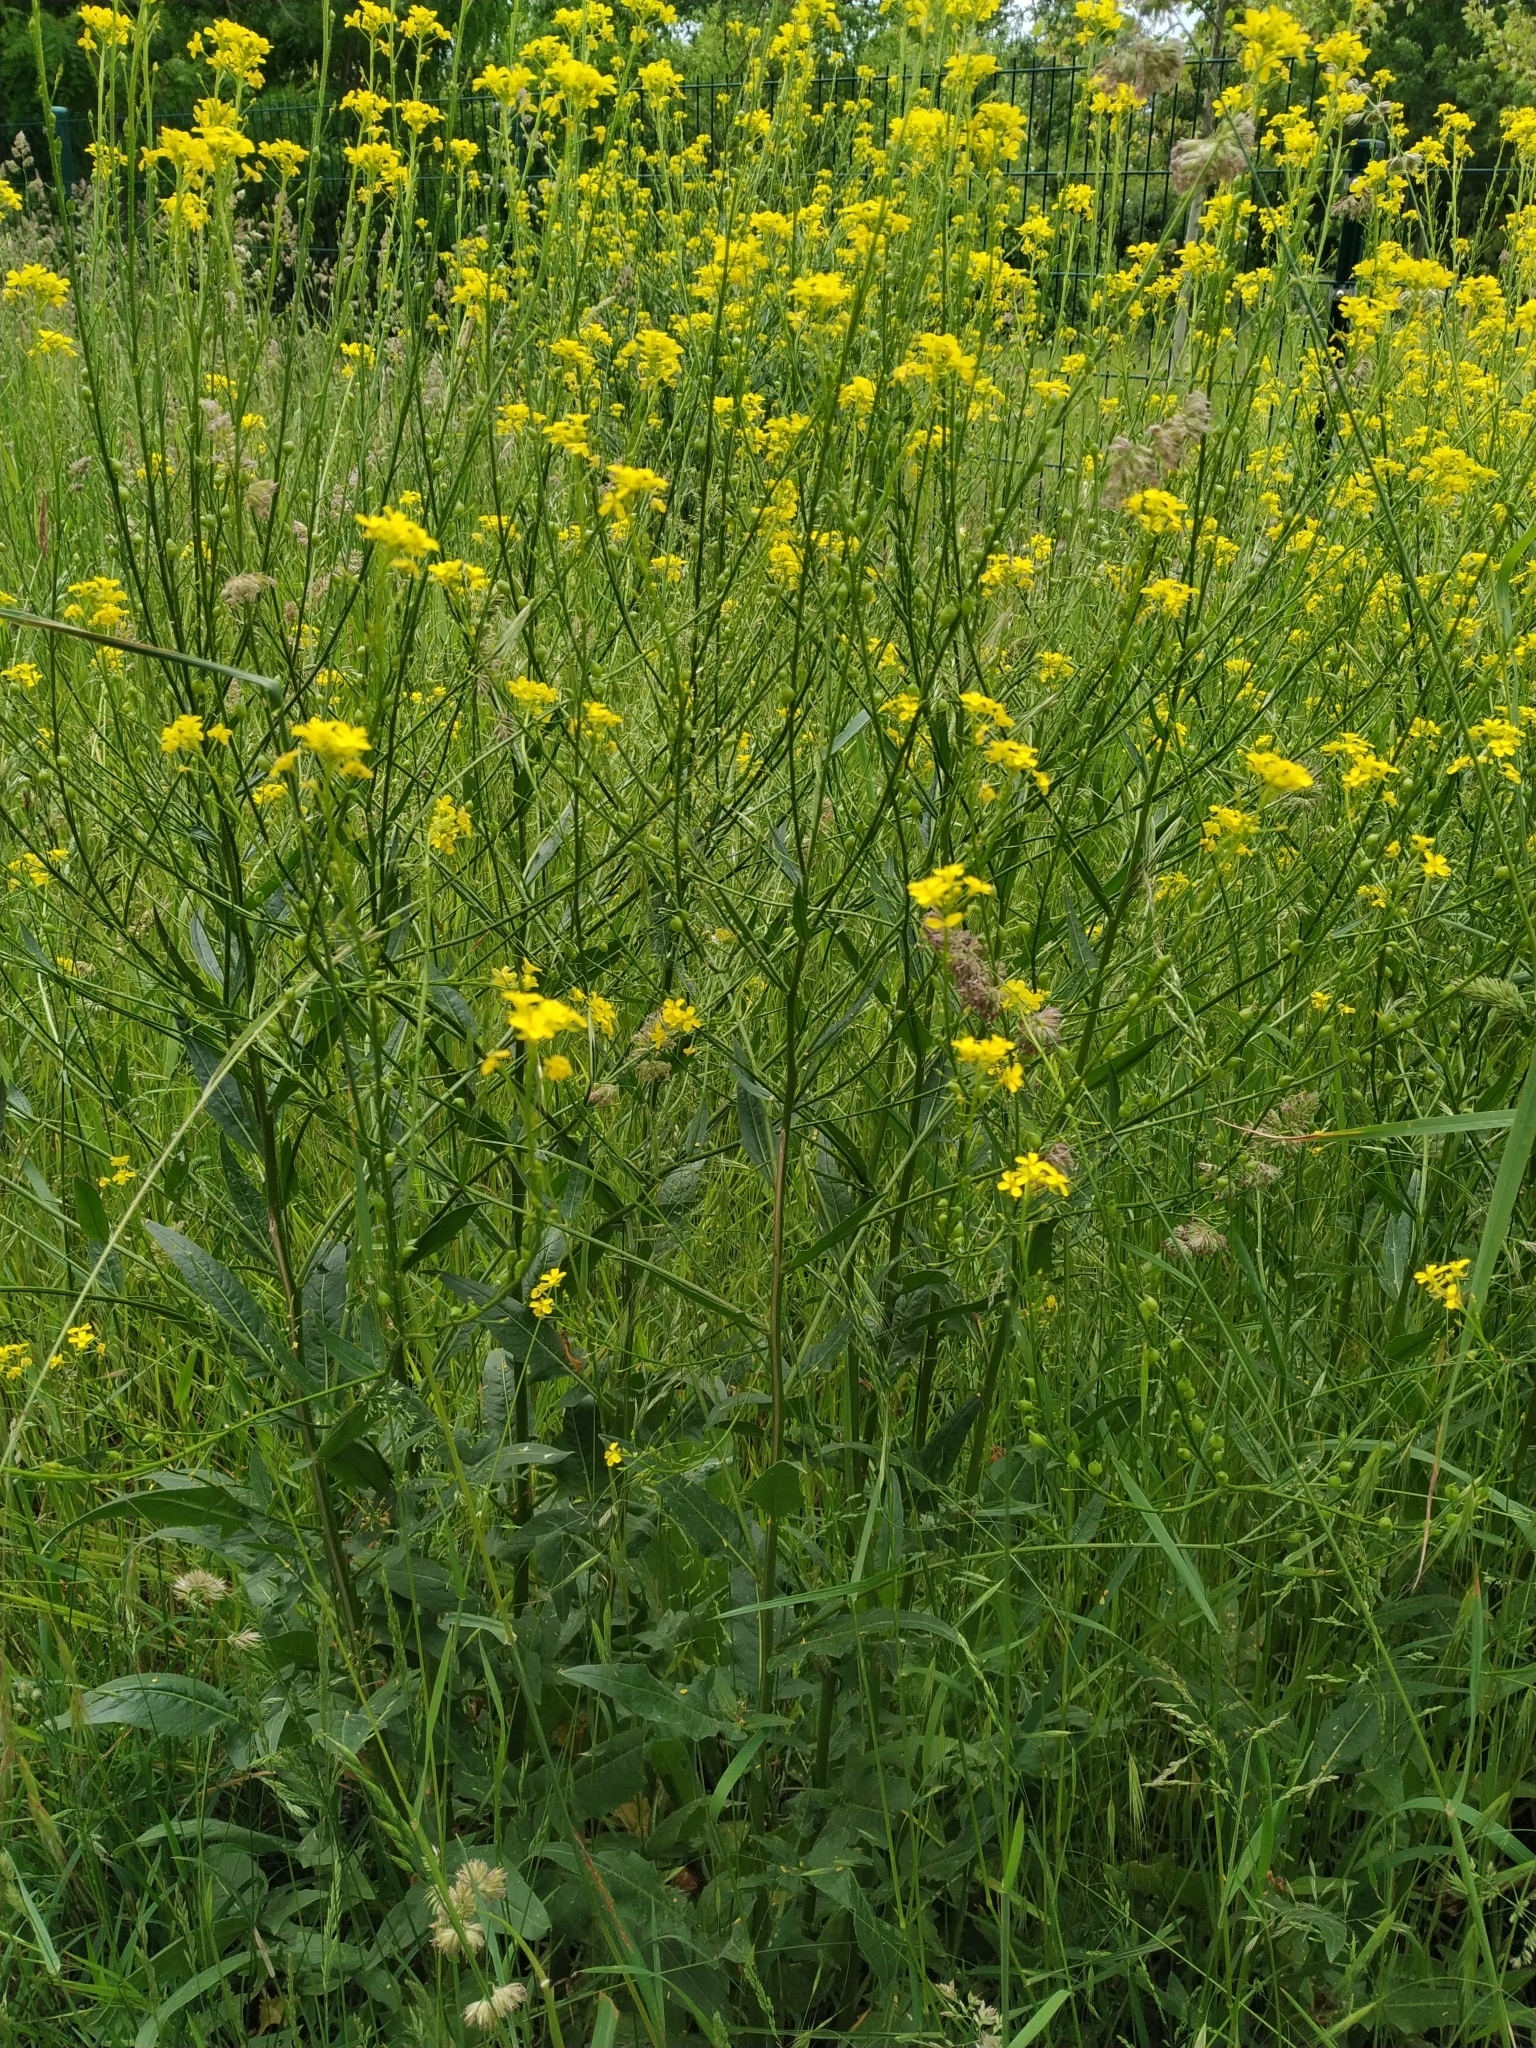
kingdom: Plantae
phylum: Tracheophyta
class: Magnoliopsida
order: Brassicales
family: Brassicaceae
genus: Bunias
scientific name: Bunias orientalis
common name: Warty-cabbage
